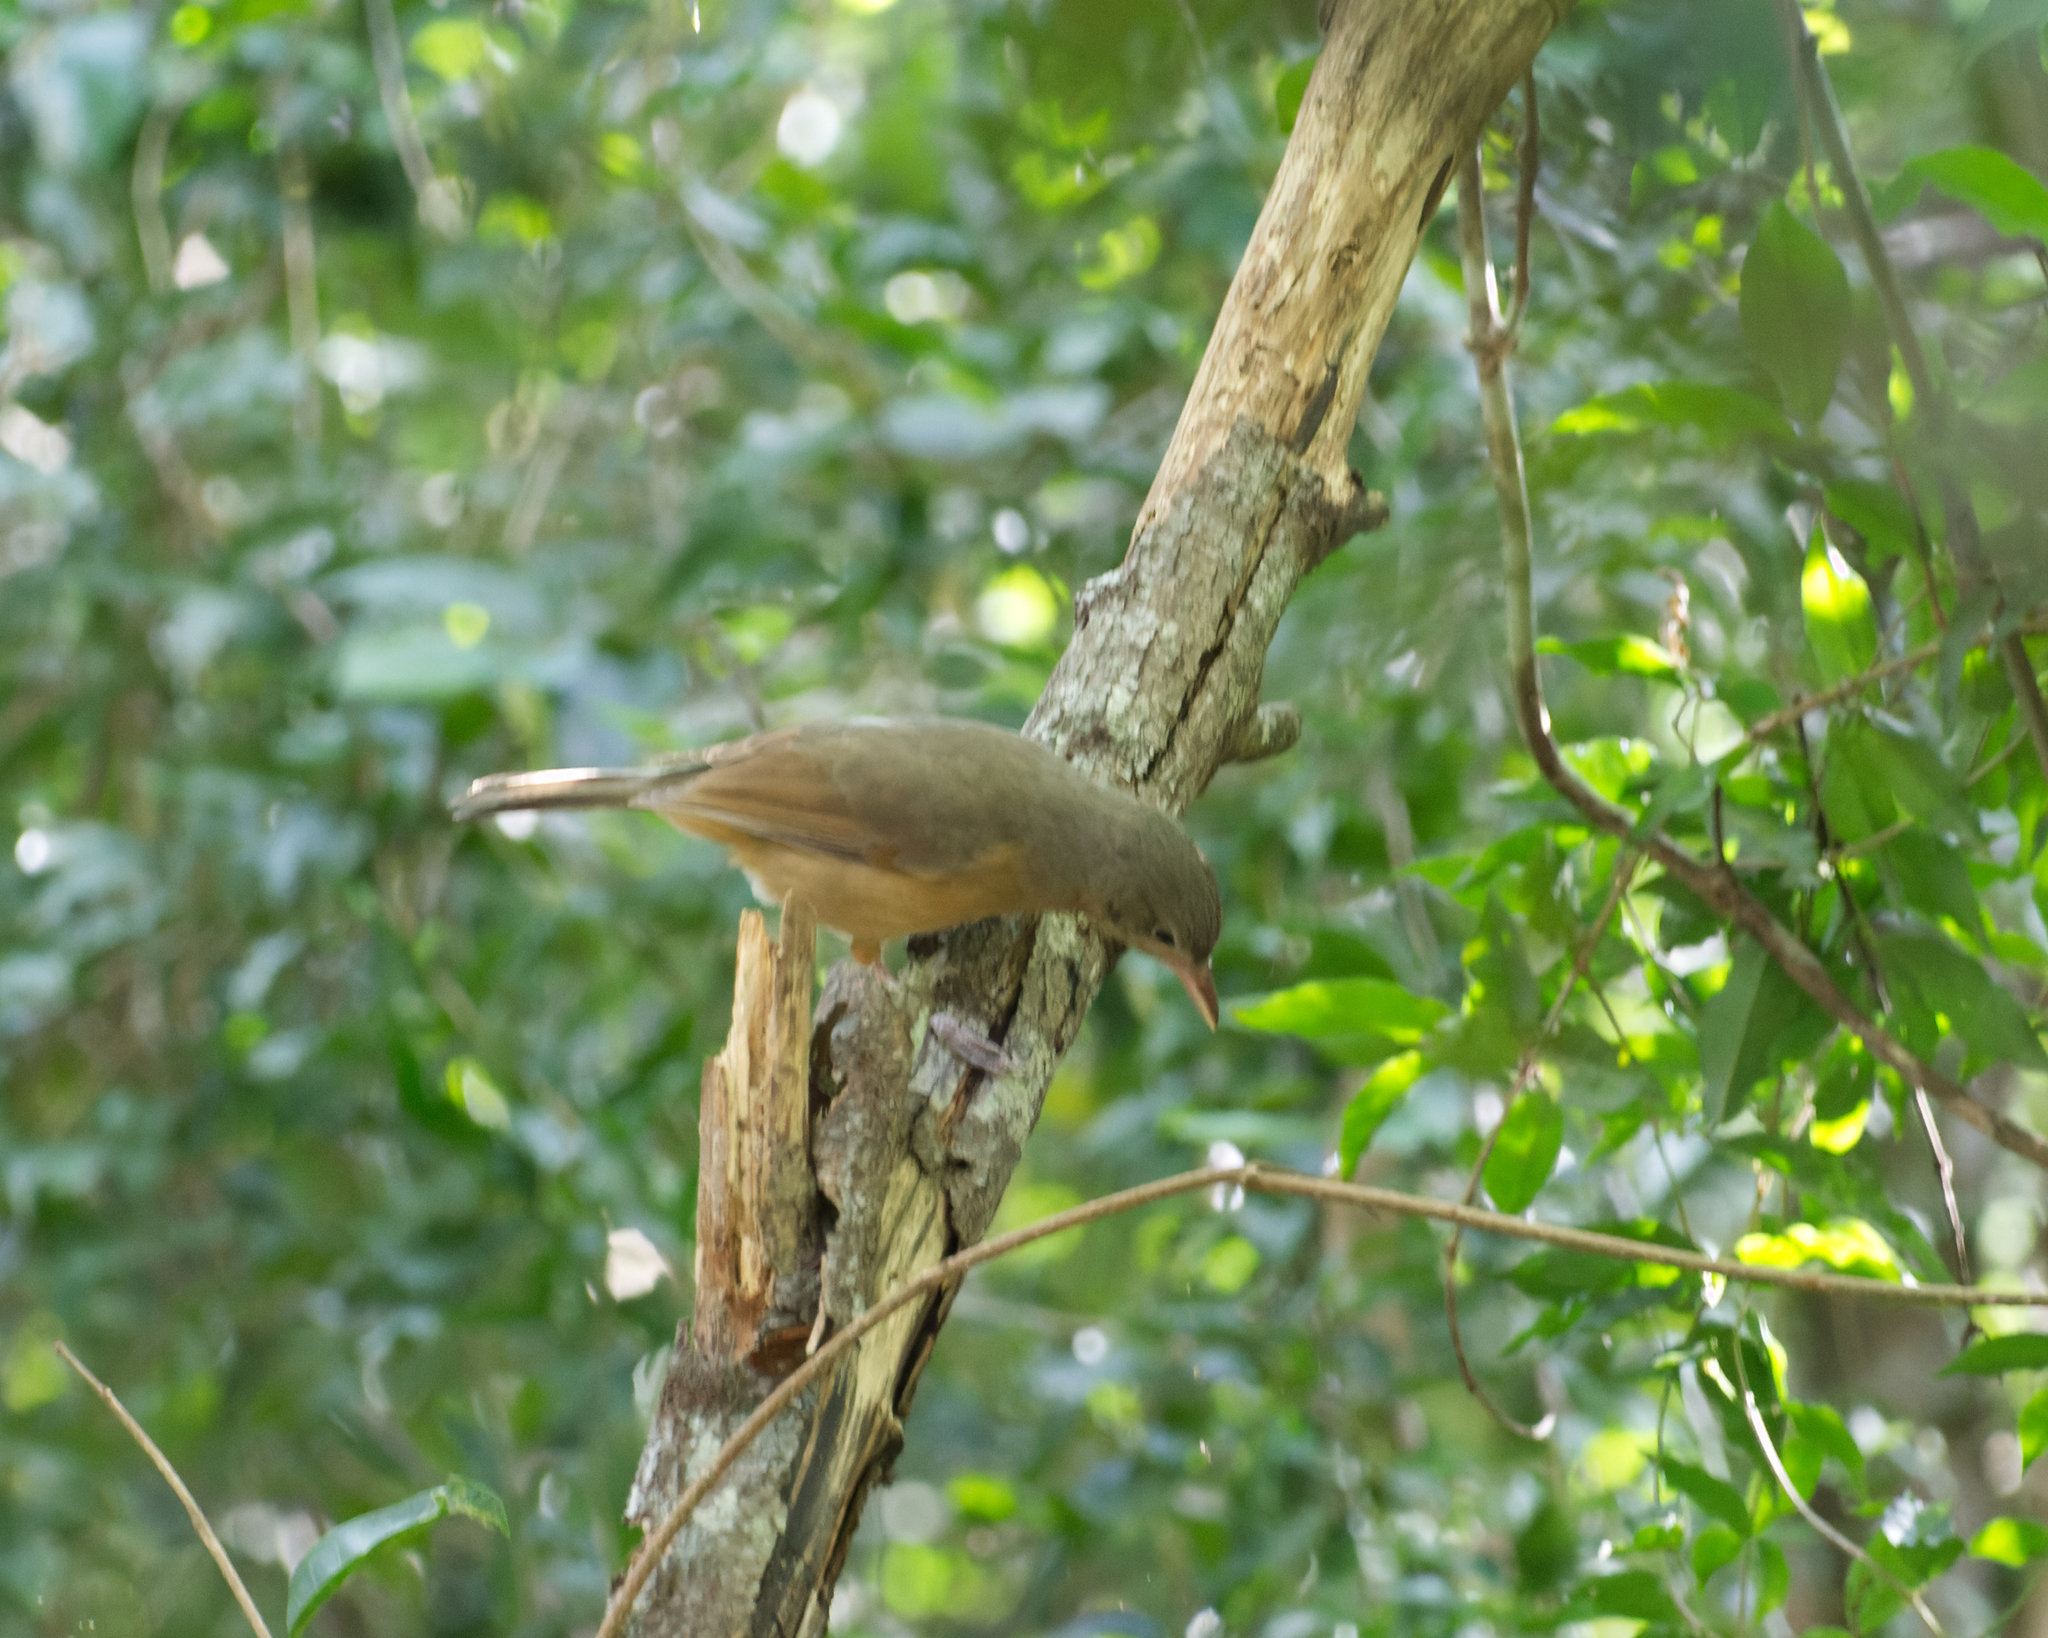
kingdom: Animalia
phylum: Chordata
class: Aves
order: Passeriformes
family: Pachycephalidae
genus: Colluricincla
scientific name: Colluricincla rufogaster
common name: Rufous shrikethrush
